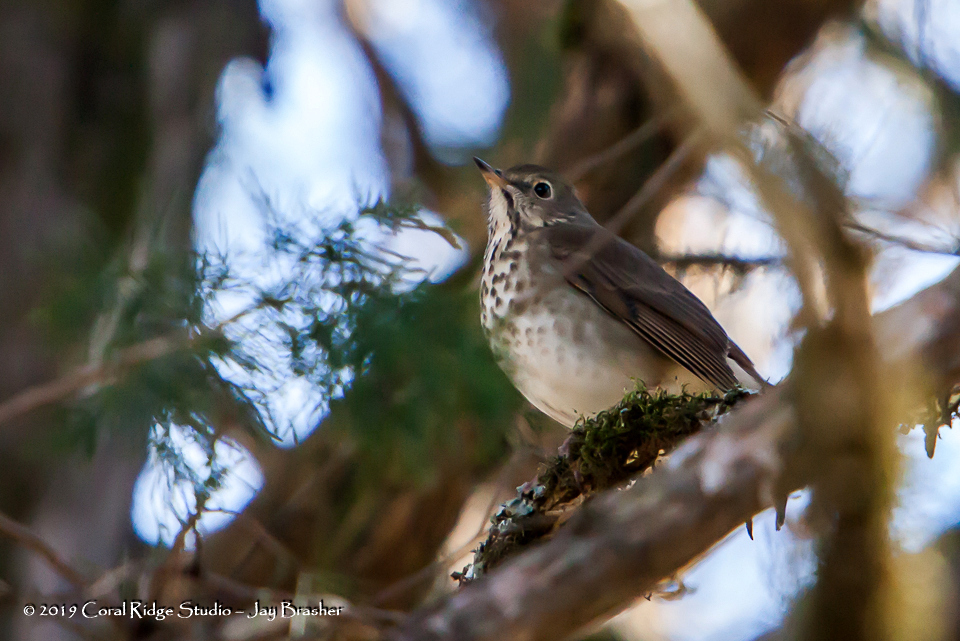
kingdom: Animalia
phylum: Chordata
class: Aves
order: Passeriformes
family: Turdidae
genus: Catharus
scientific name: Catharus guttatus
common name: Hermit thrush
